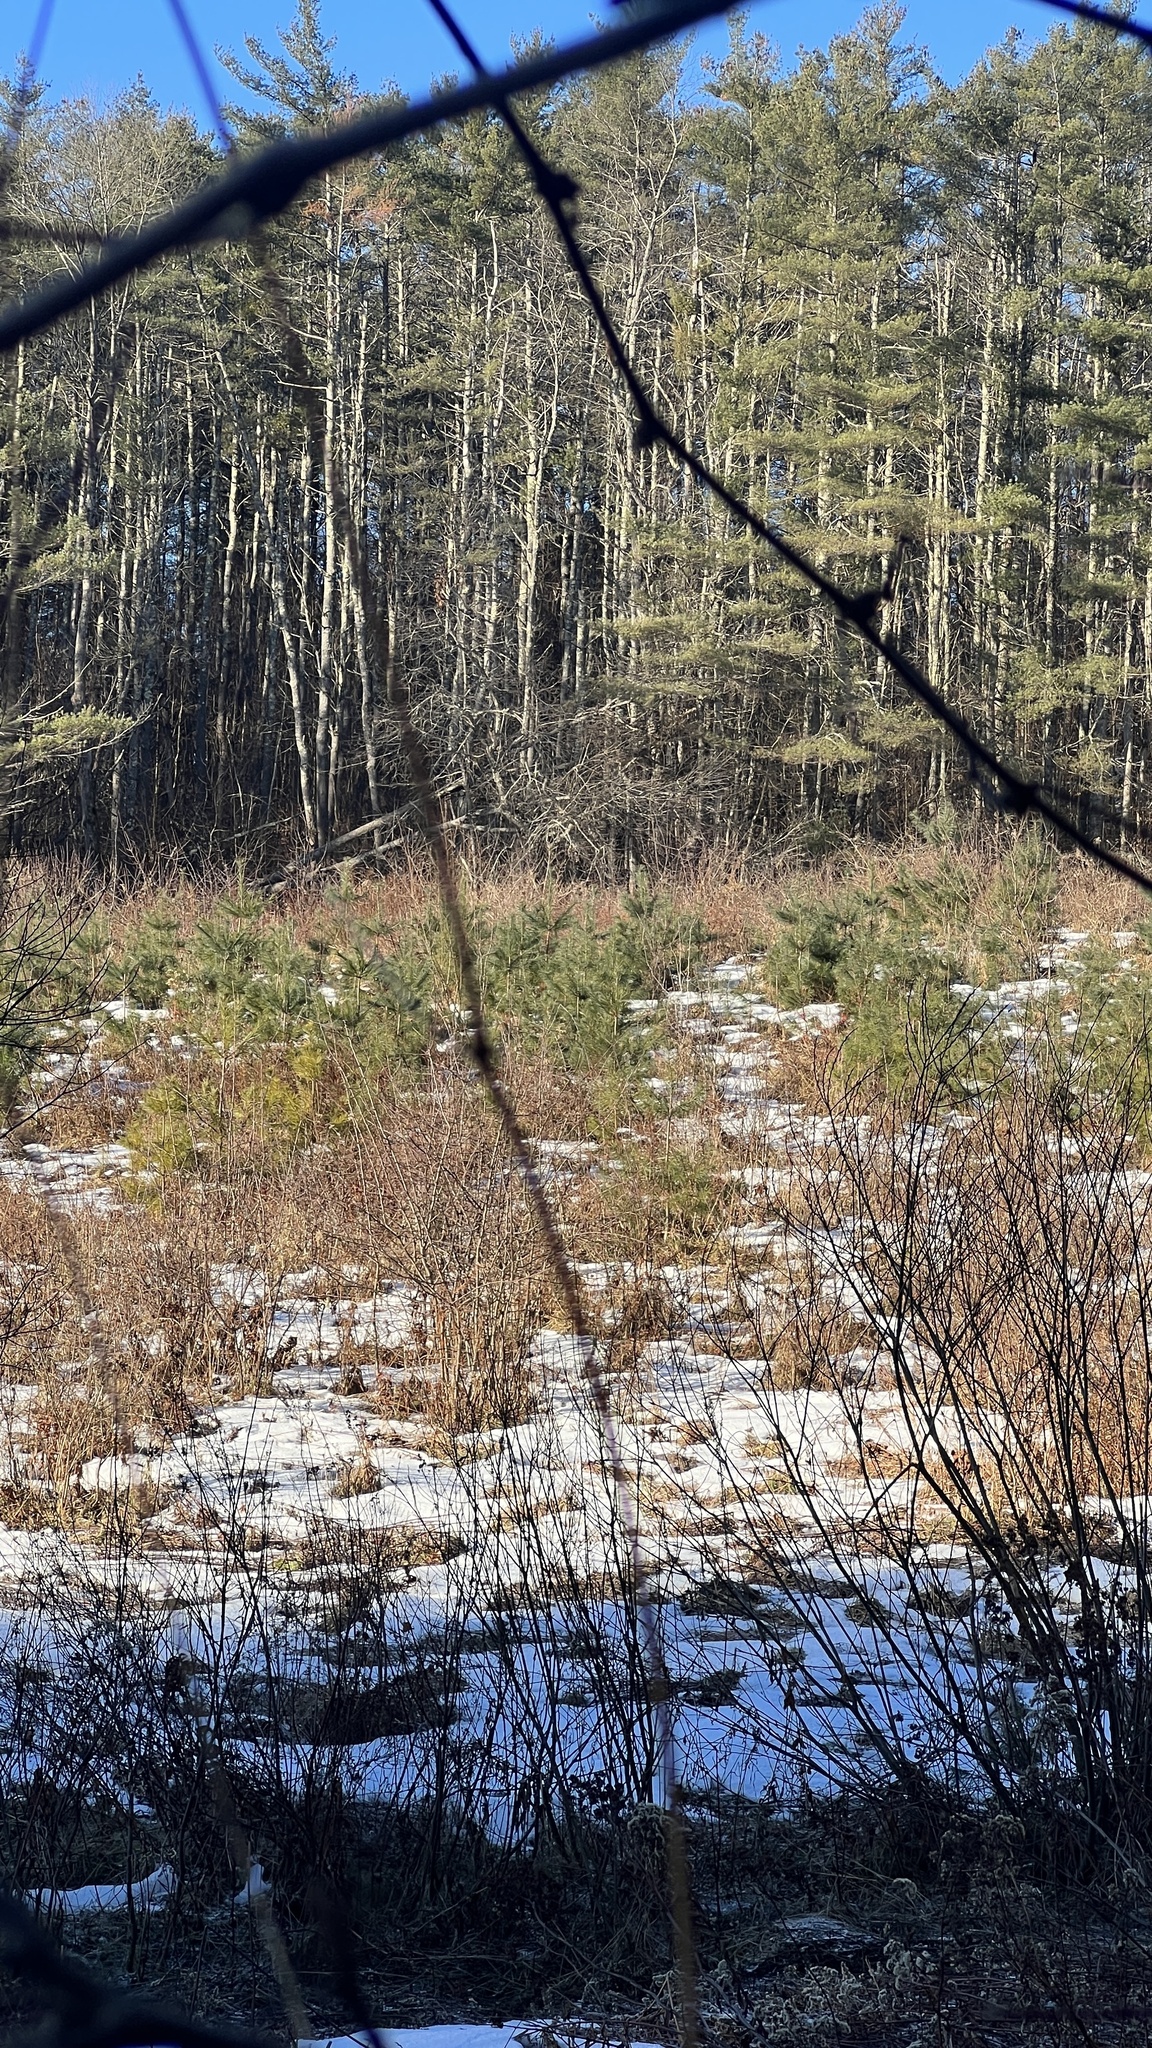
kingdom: Plantae
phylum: Tracheophyta
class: Pinopsida
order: Pinales
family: Pinaceae
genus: Pinus
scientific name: Pinus strobus
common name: Weymouth pine
